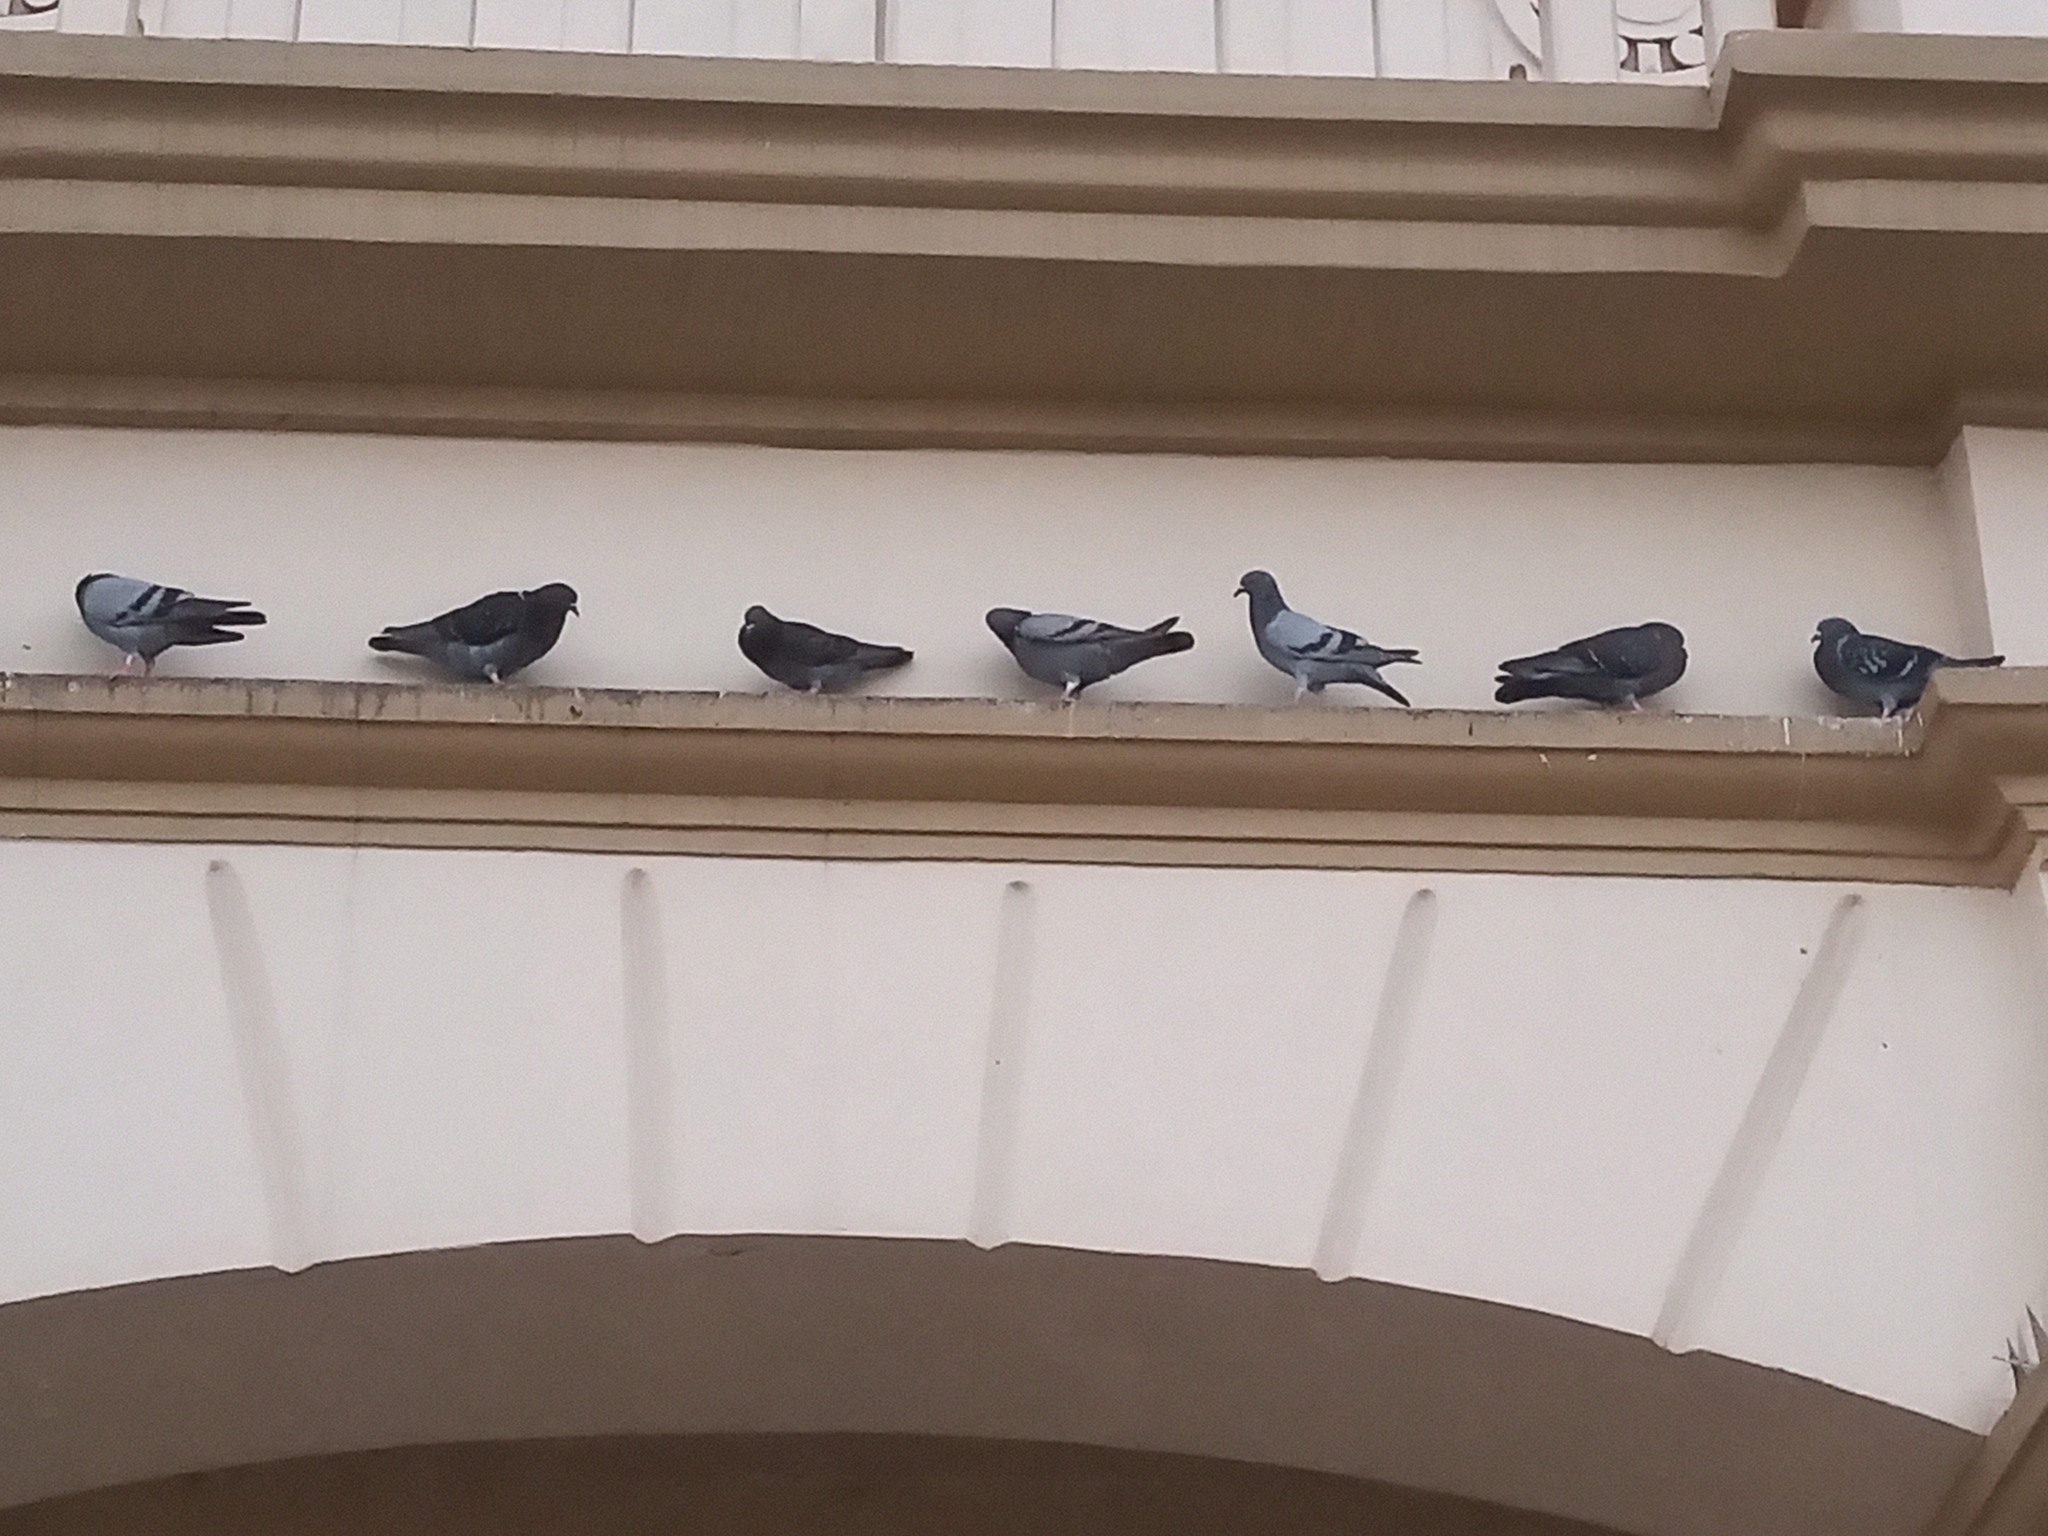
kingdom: Animalia
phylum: Chordata
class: Aves
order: Columbiformes
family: Columbidae
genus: Columba
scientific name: Columba livia
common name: Rock pigeon
